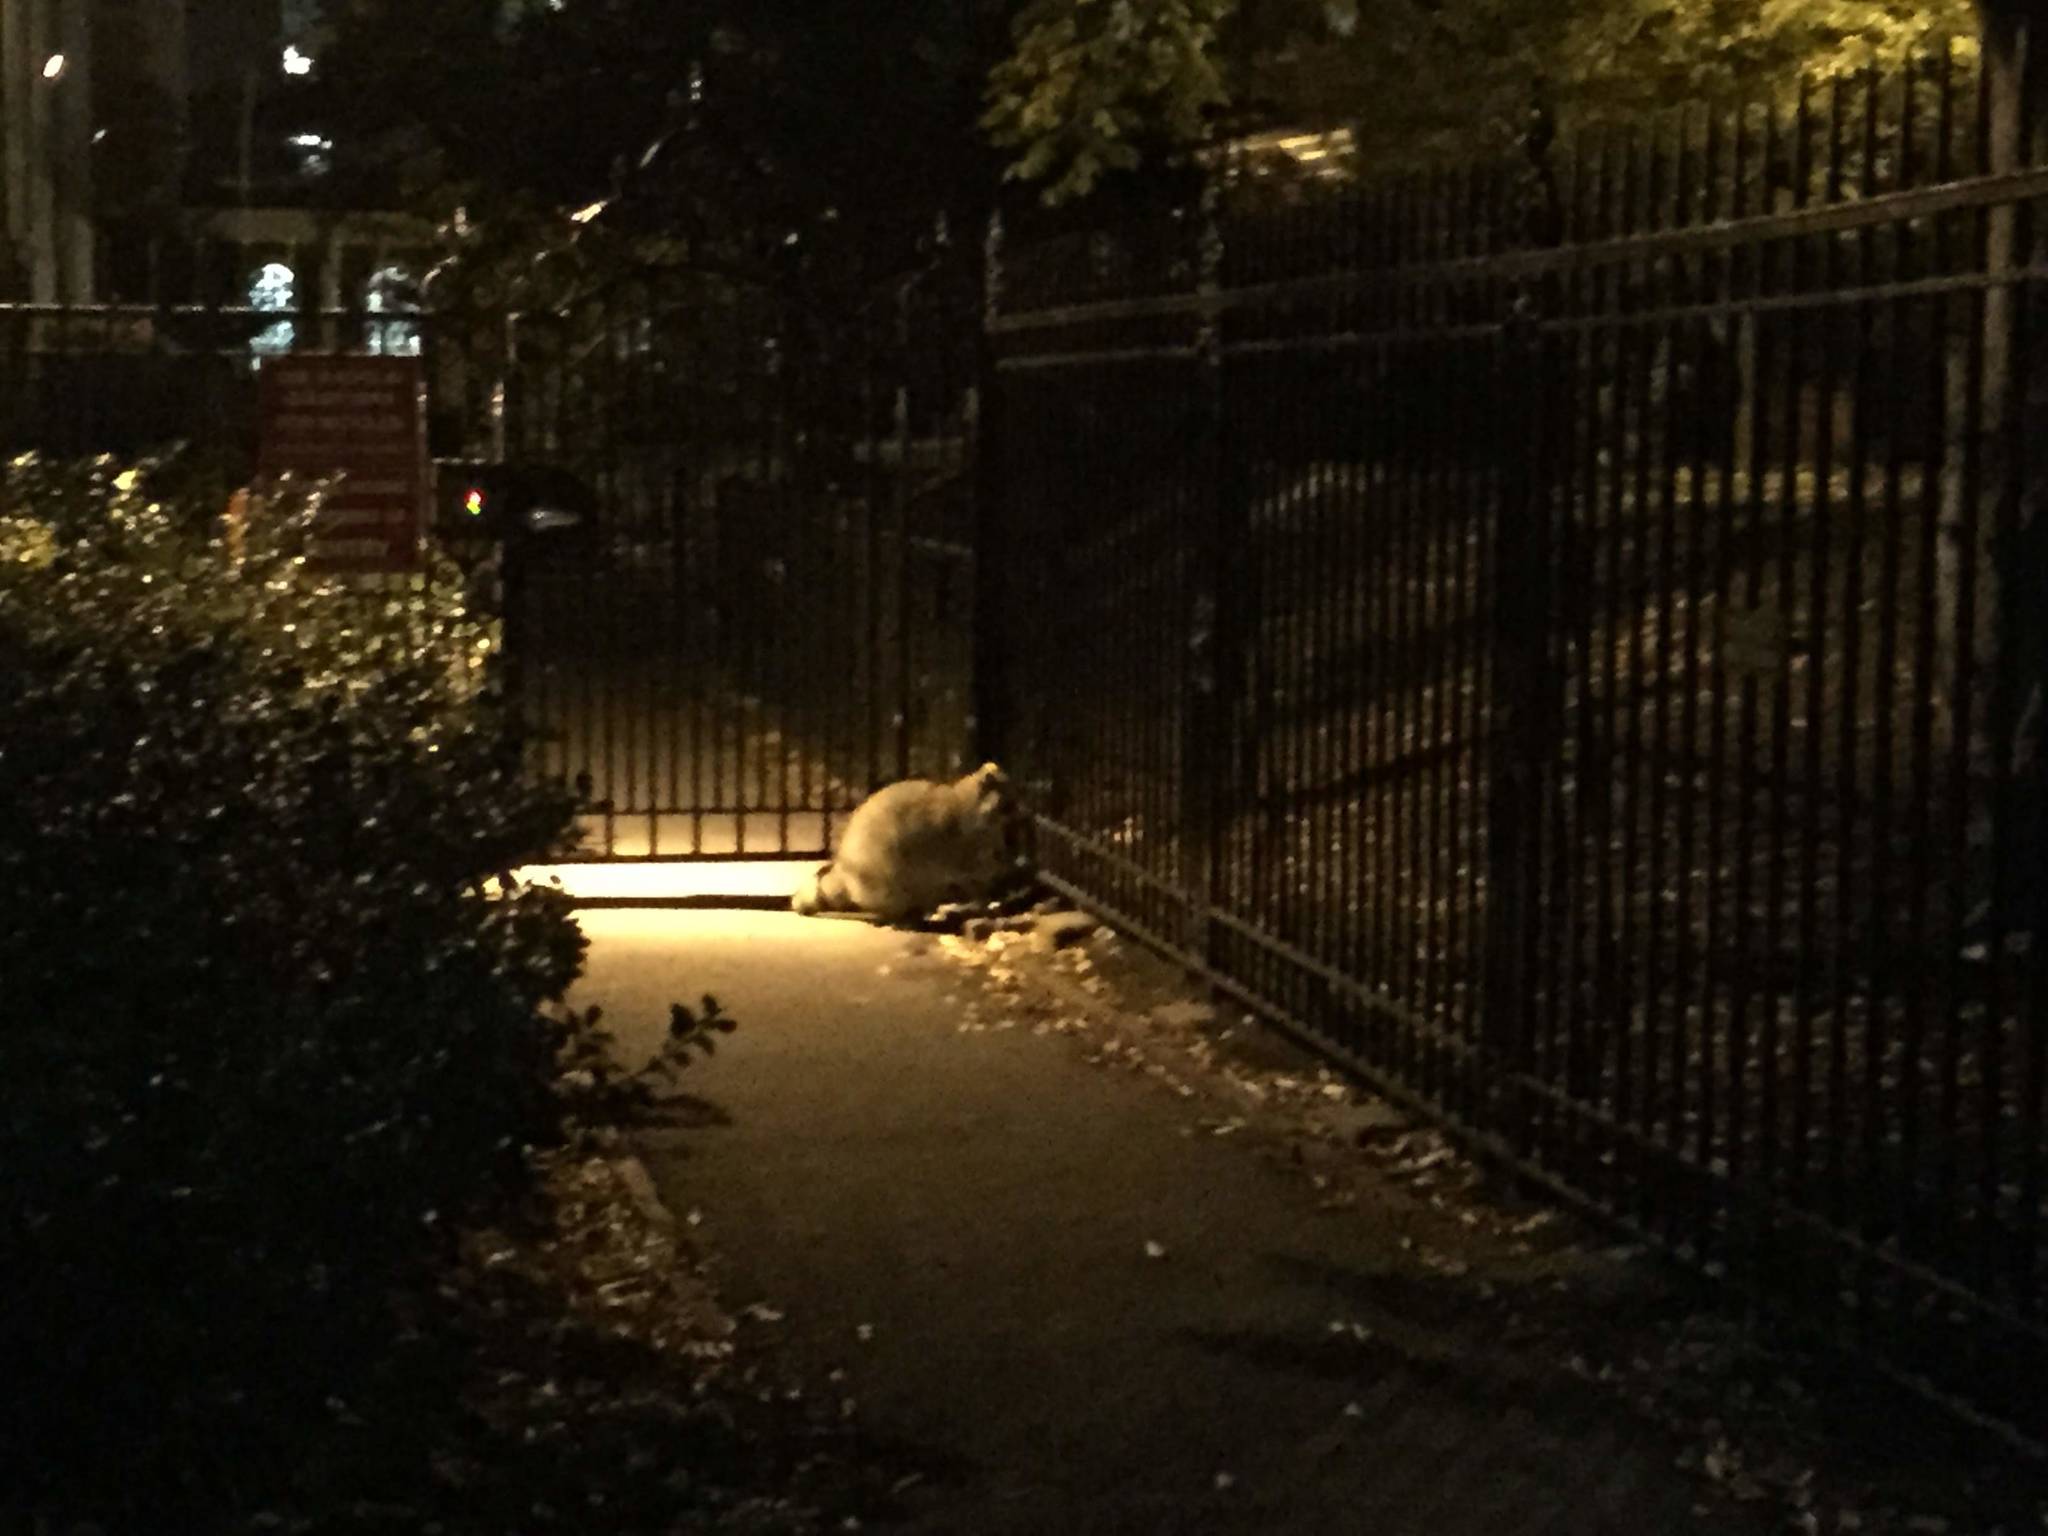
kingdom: Animalia
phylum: Chordata
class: Mammalia
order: Carnivora
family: Procyonidae
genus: Procyon
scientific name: Procyon lotor
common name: Raccoon
